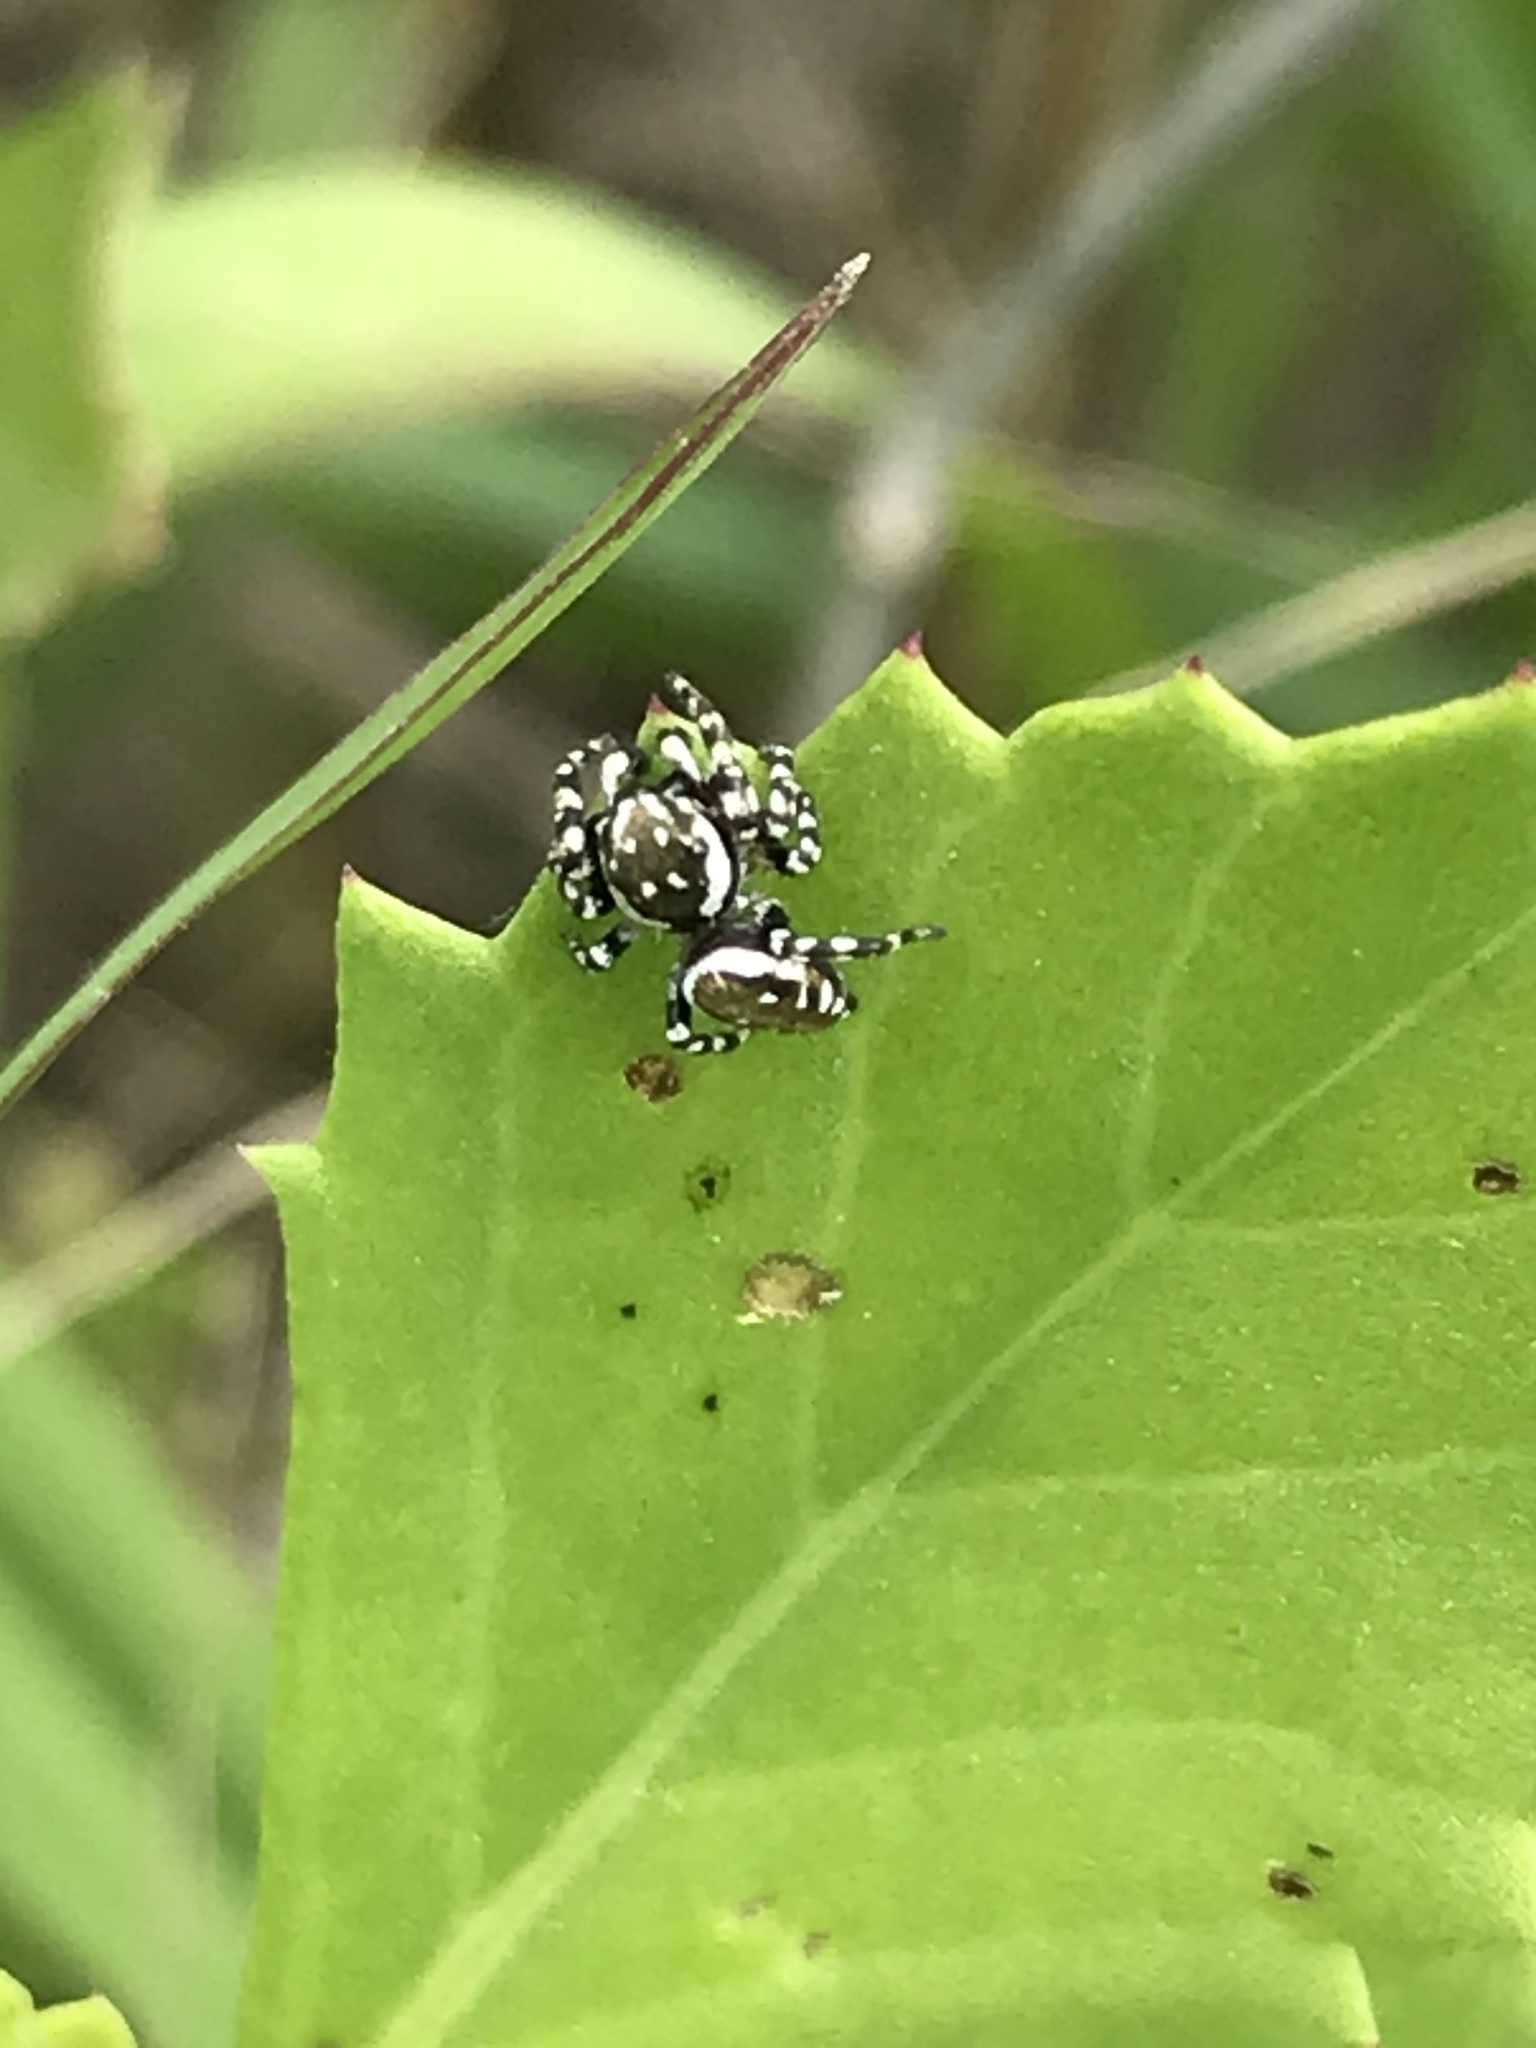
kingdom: Animalia
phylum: Arthropoda
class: Arachnida
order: Araneae
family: Salticidae
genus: Pelegrina
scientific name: Pelegrina galathea
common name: Jumping spiders
